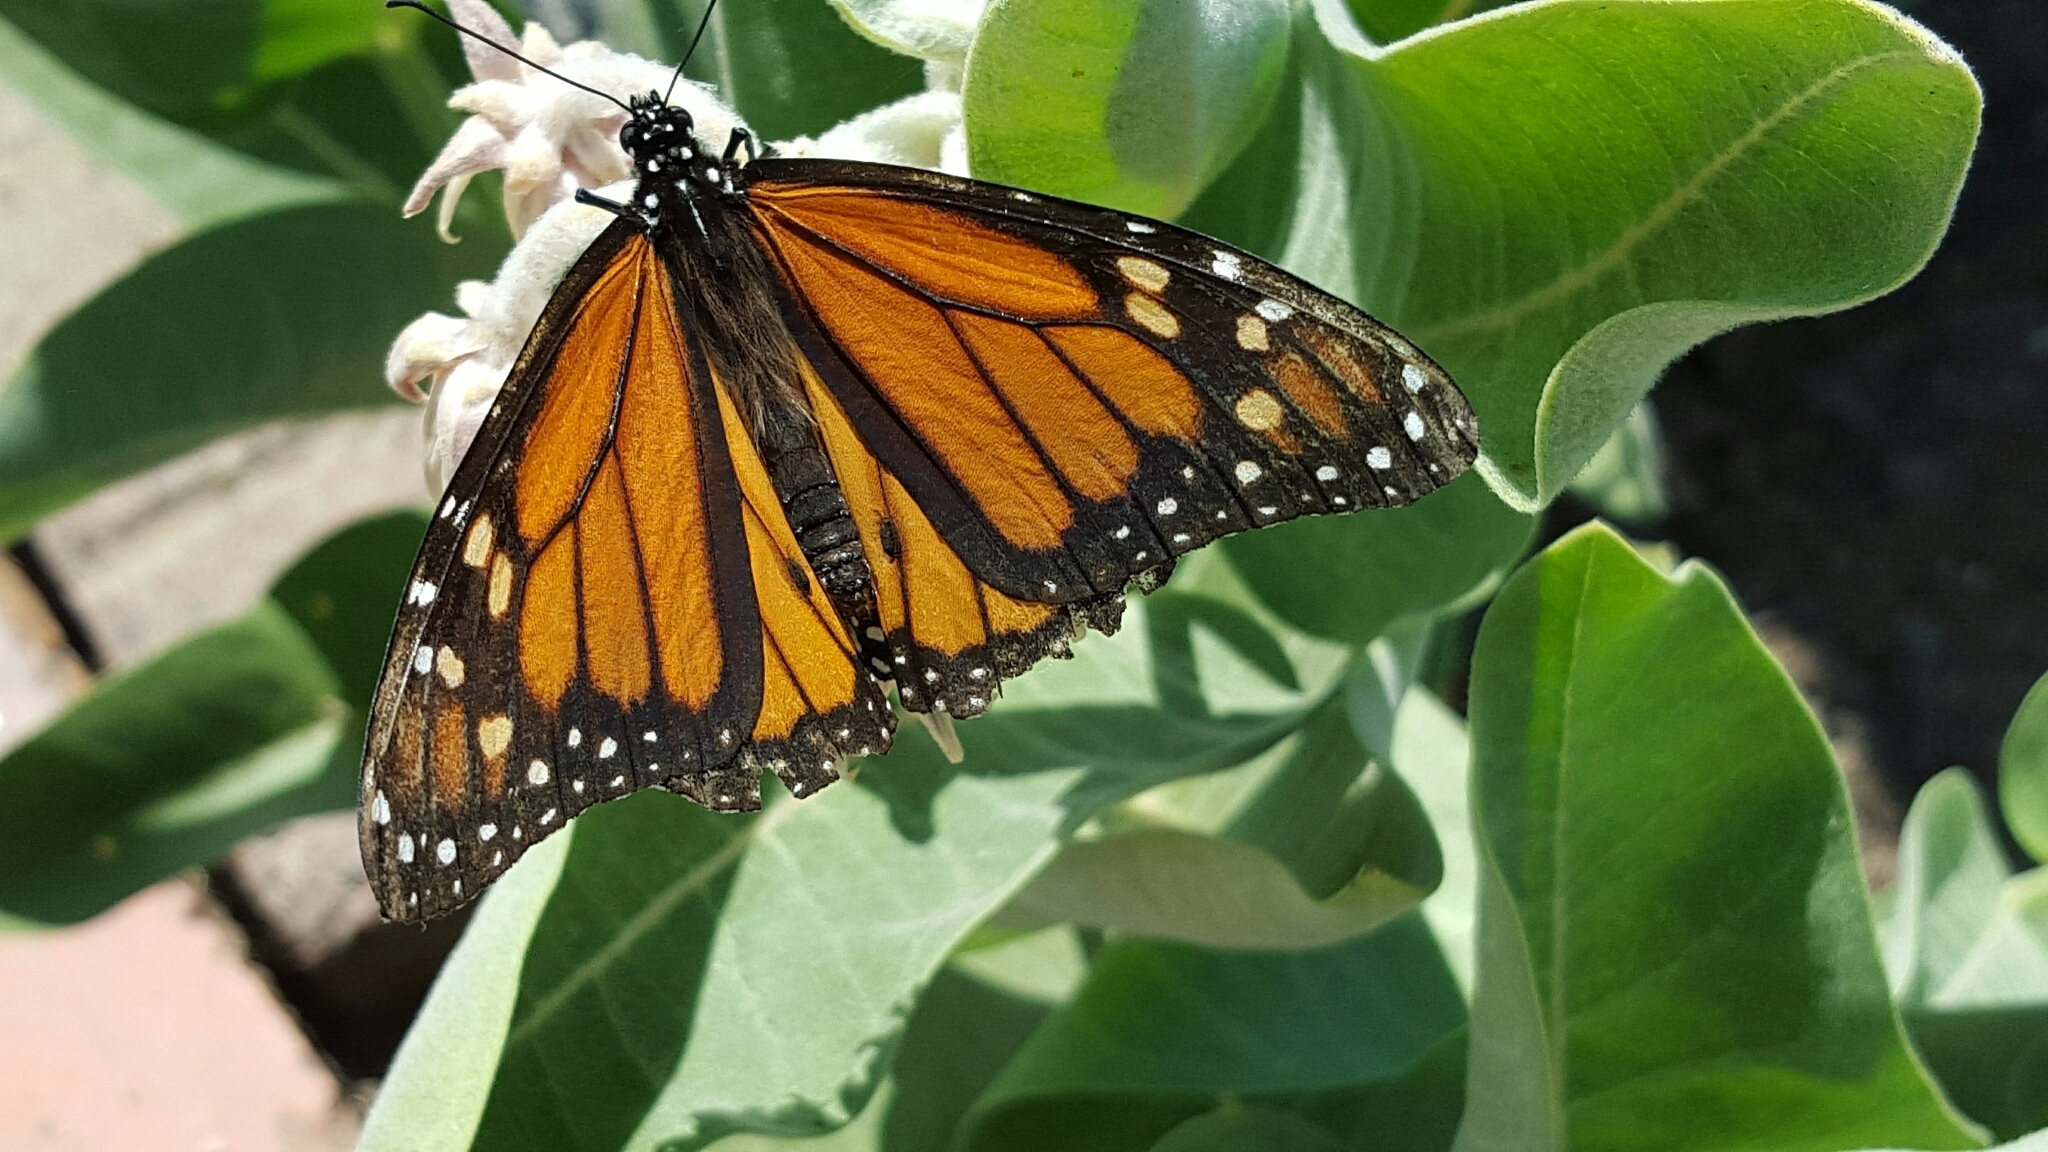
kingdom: Animalia
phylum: Arthropoda
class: Insecta
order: Lepidoptera
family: Nymphalidae
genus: Danaus
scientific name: Danaus plexippus
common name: Monarch
